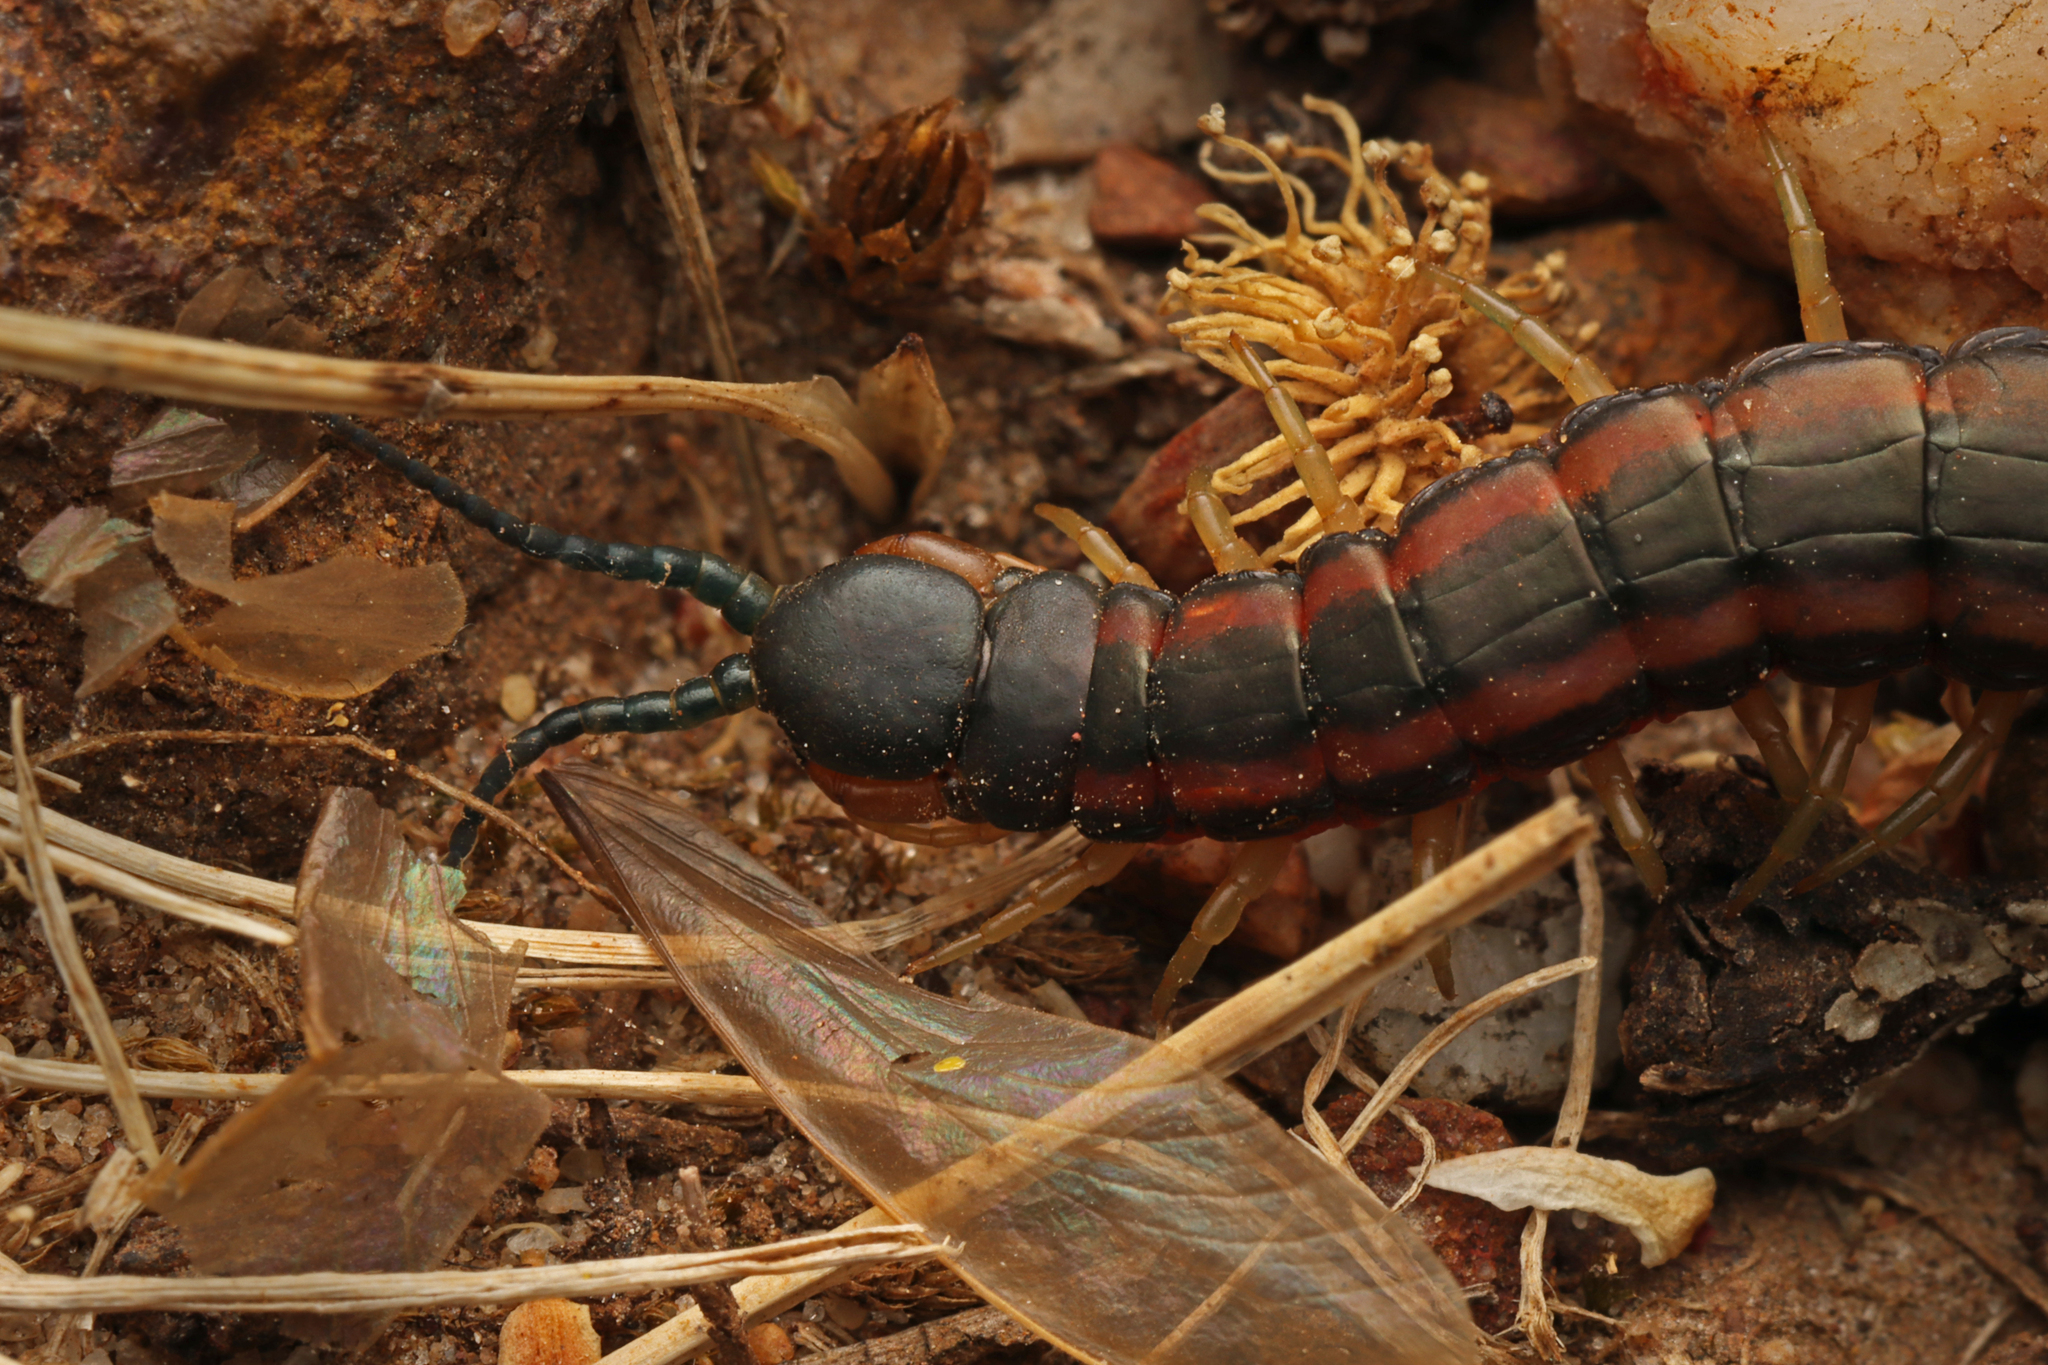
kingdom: Animalia
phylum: Arthropoda
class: Chilopoda
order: Scolopendromorpha
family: Scolopendridae
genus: Scolopendra
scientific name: Scolopendra laeta
